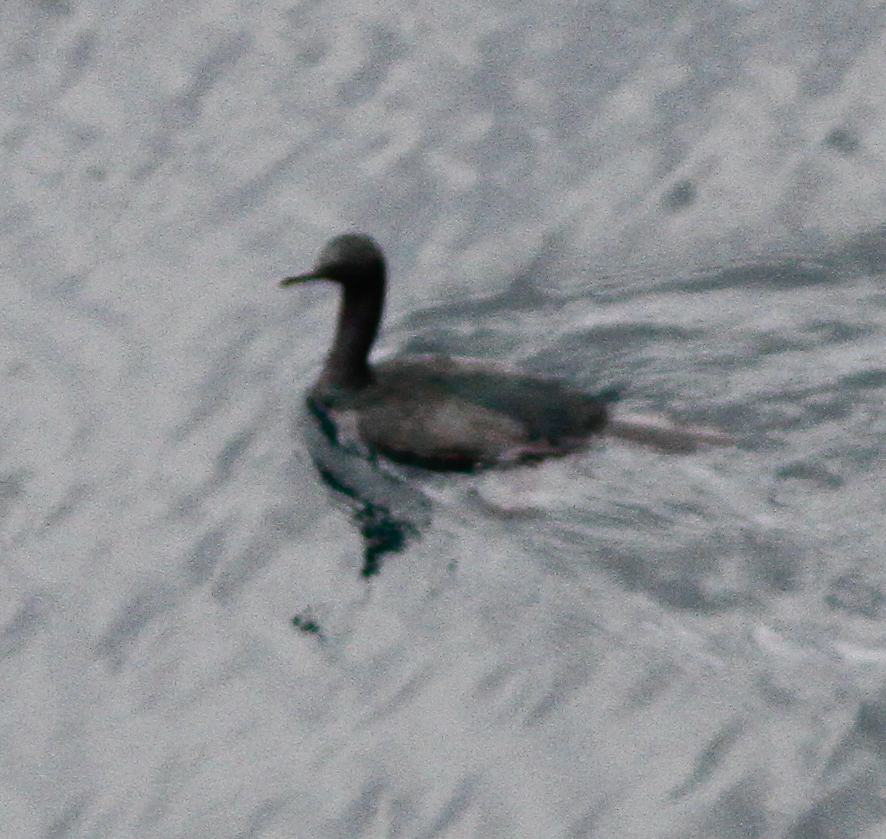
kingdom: Animalia
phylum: Chordata
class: Aves
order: Suliformes
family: Phalacrocoracidae
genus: Phalacrocorax
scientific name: Phalacrocorax pelagicus
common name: Pelagic cormorant
